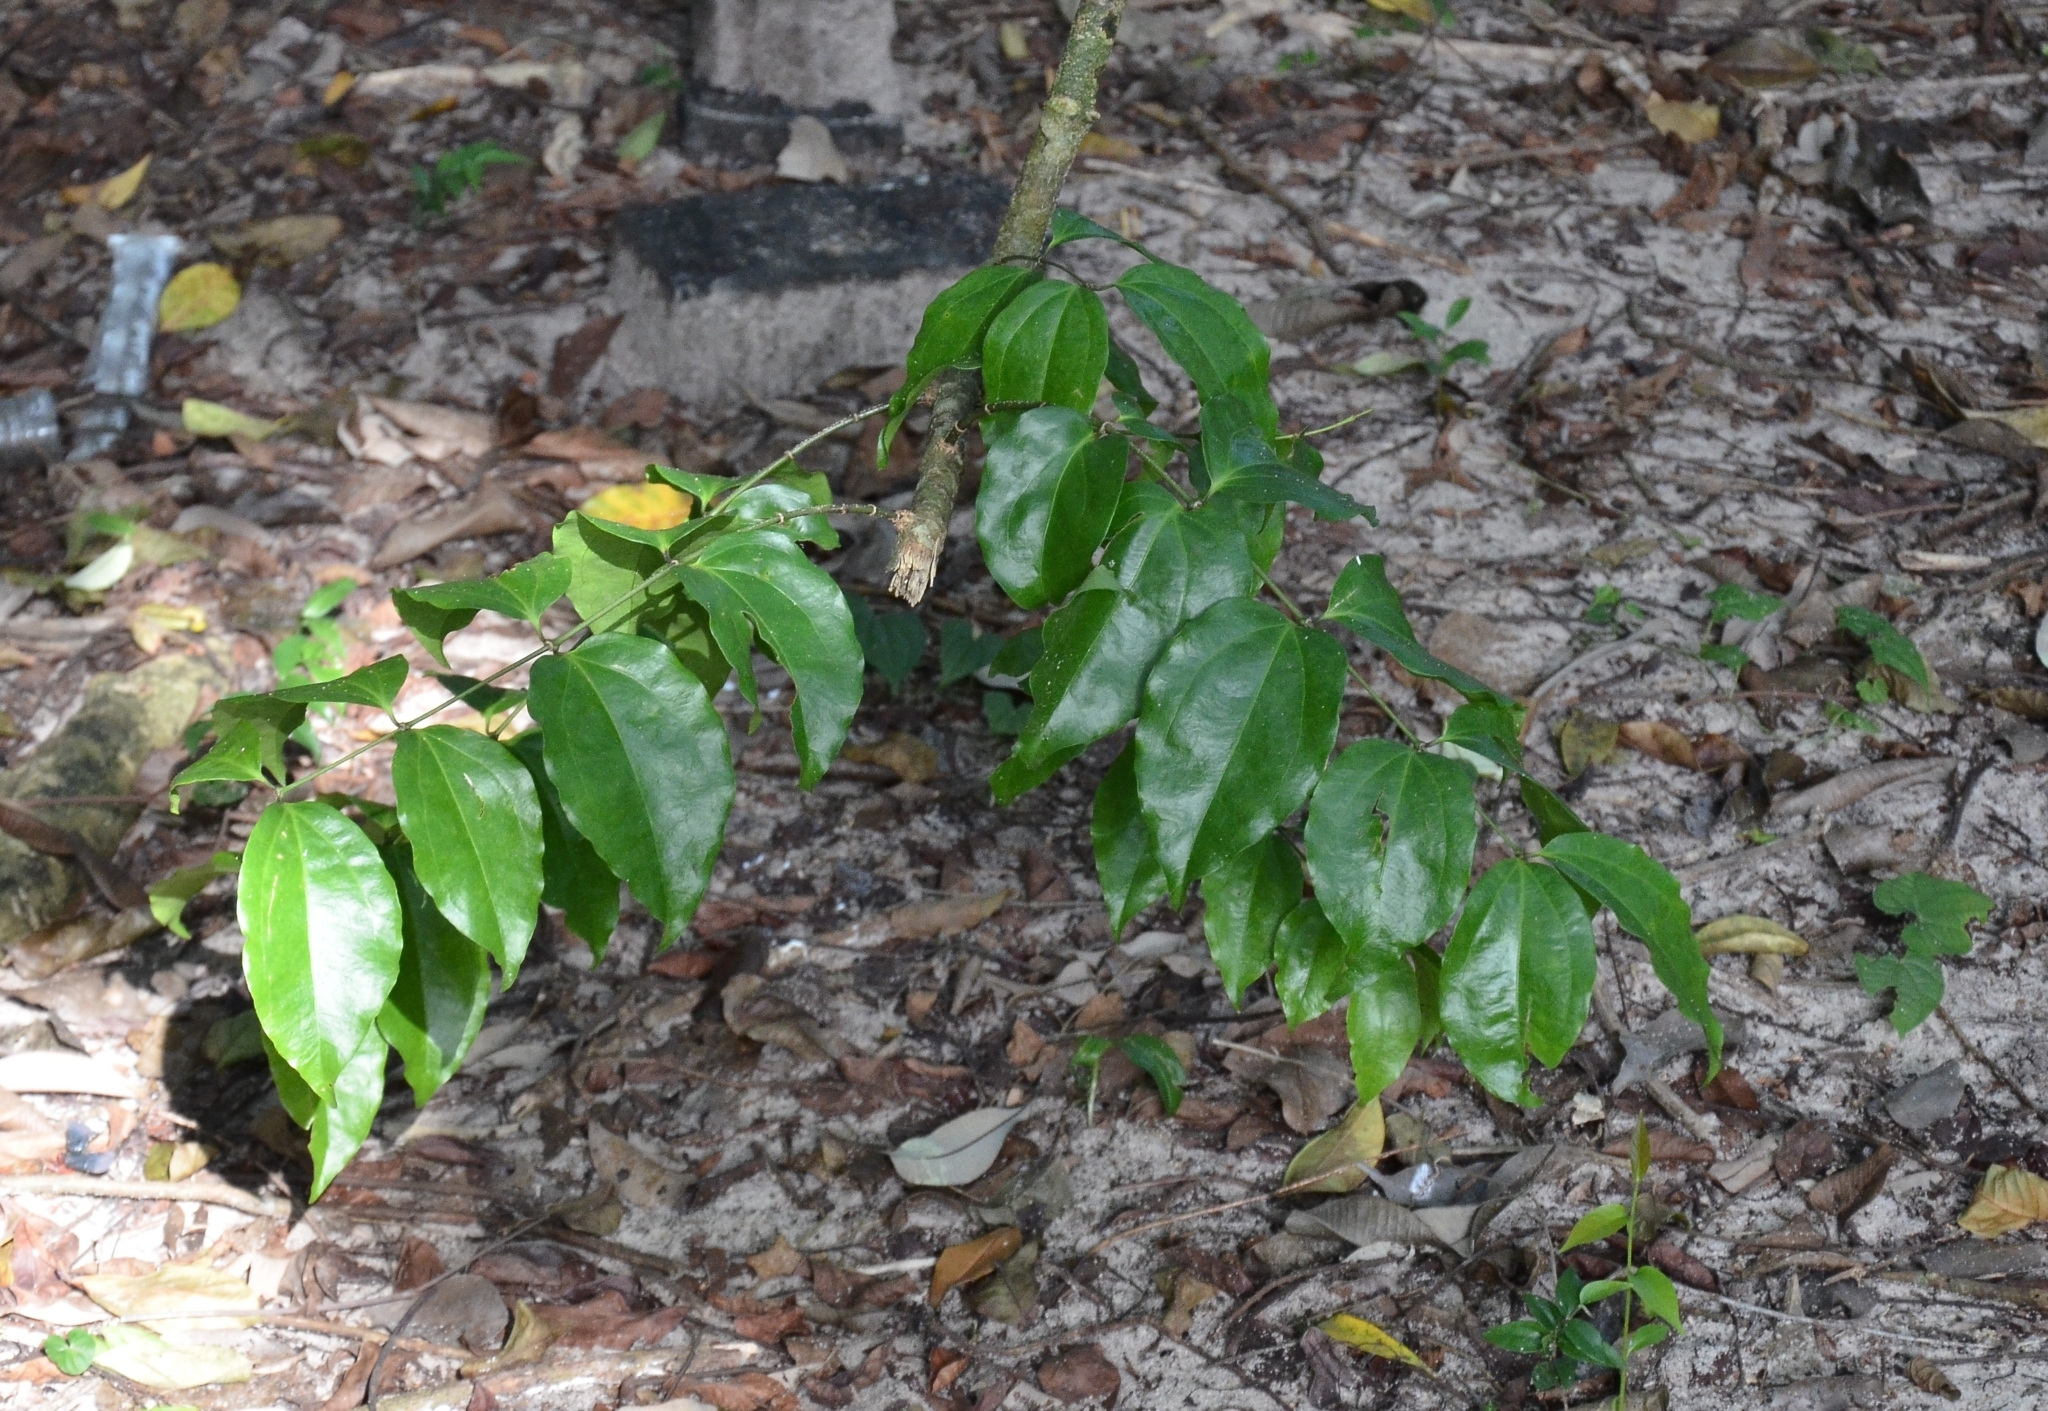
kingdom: Plantae
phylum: Tracheophyta
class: Magnoliopsida
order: Ranunculales
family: Menispermaceae
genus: Tiliacora
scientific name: Tiliacora acuminata
